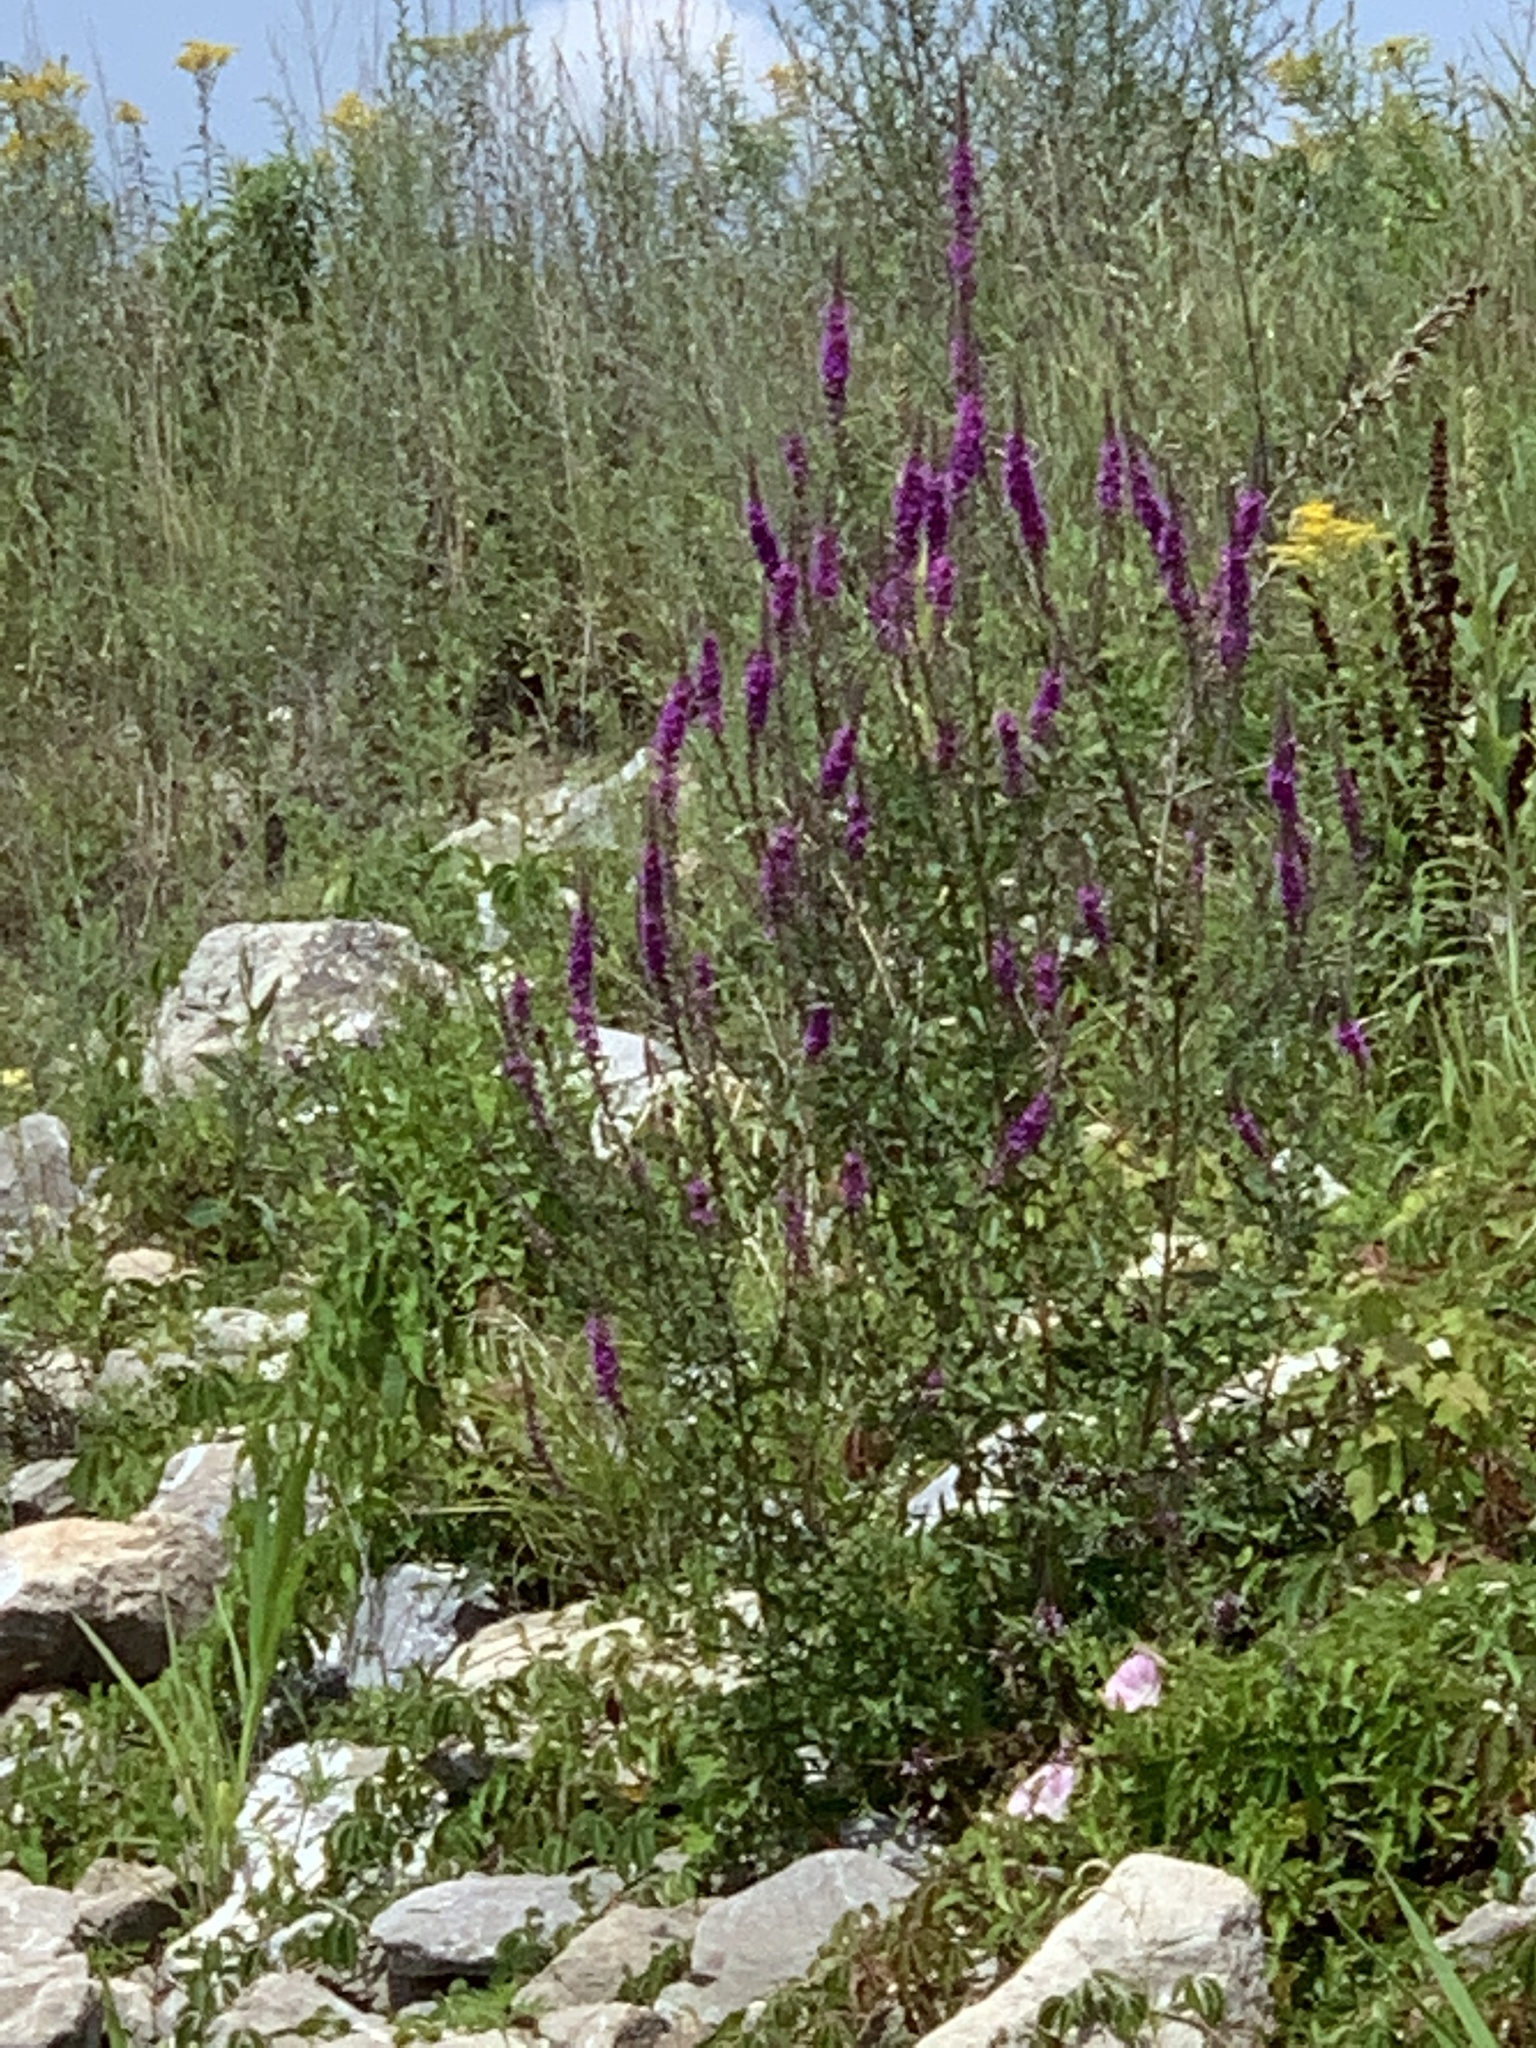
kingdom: Plantae
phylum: Tracheophyta
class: Magnoliopsida
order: Myrtales
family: Lythraceae
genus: Lythrum
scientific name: Lythrum salicaria
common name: Purple loosestrife
